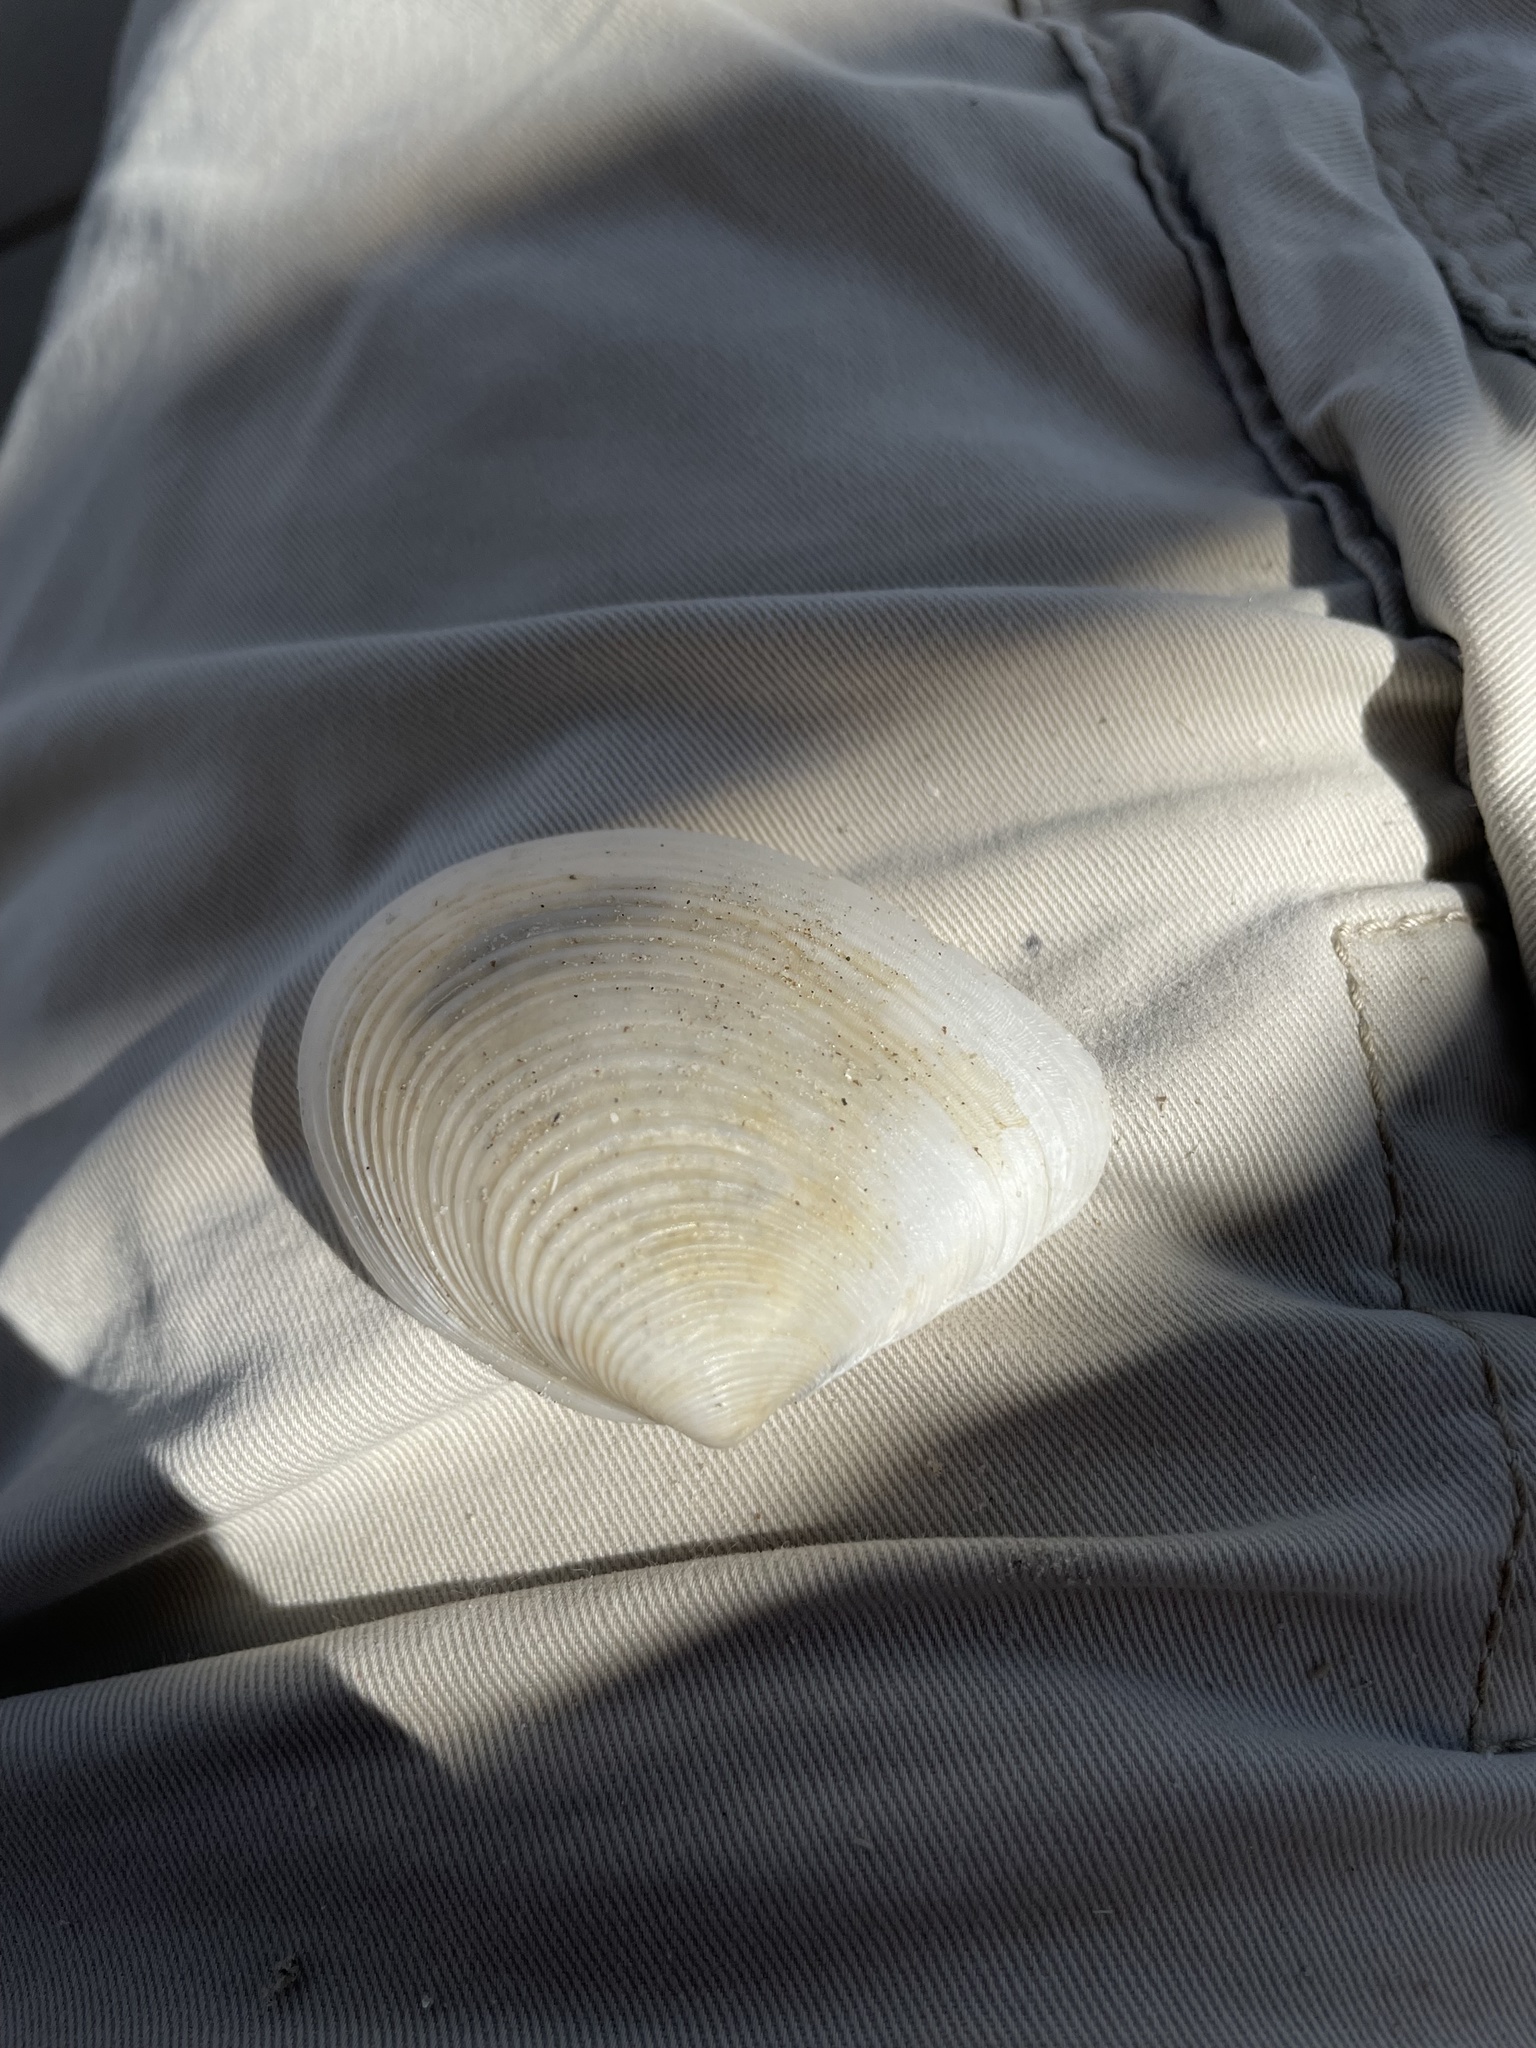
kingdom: Animalia
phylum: Mollusca
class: Bivalvia
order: Venerida
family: Anatinellidae
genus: Raeta
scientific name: Raeta plicatella
